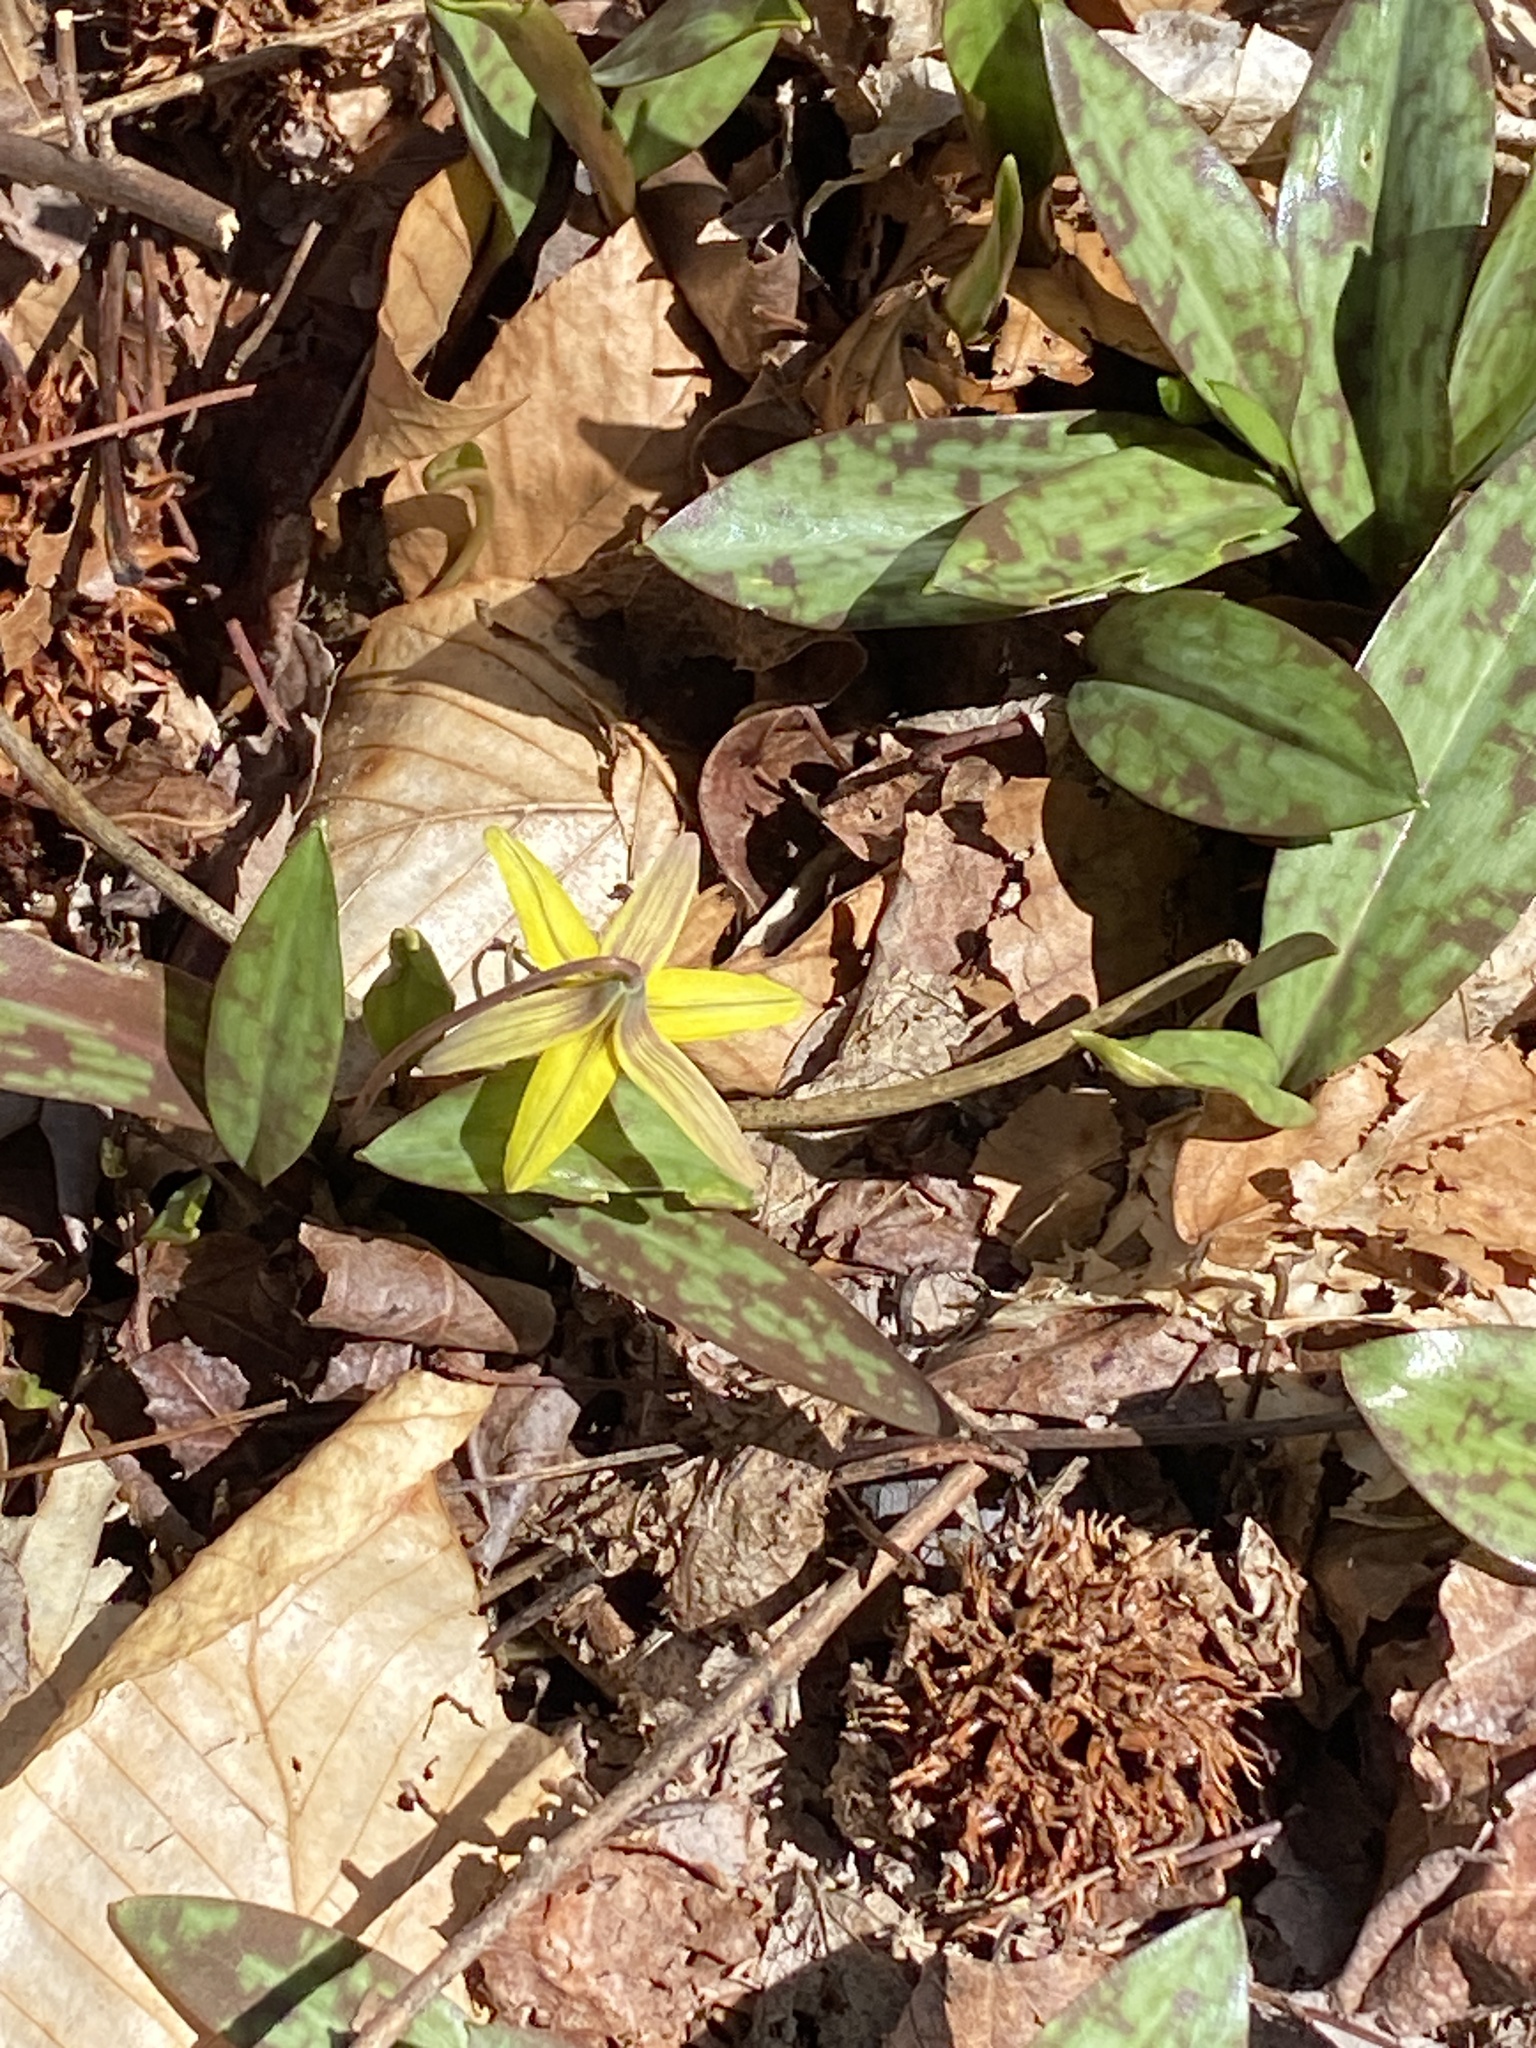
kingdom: Plantae
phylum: Tracheophyta
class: Liliopsida
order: Liliales
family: Liliaceae
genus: Erythronium
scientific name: Erythronium americanum
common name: Yellow adder's-tongue
